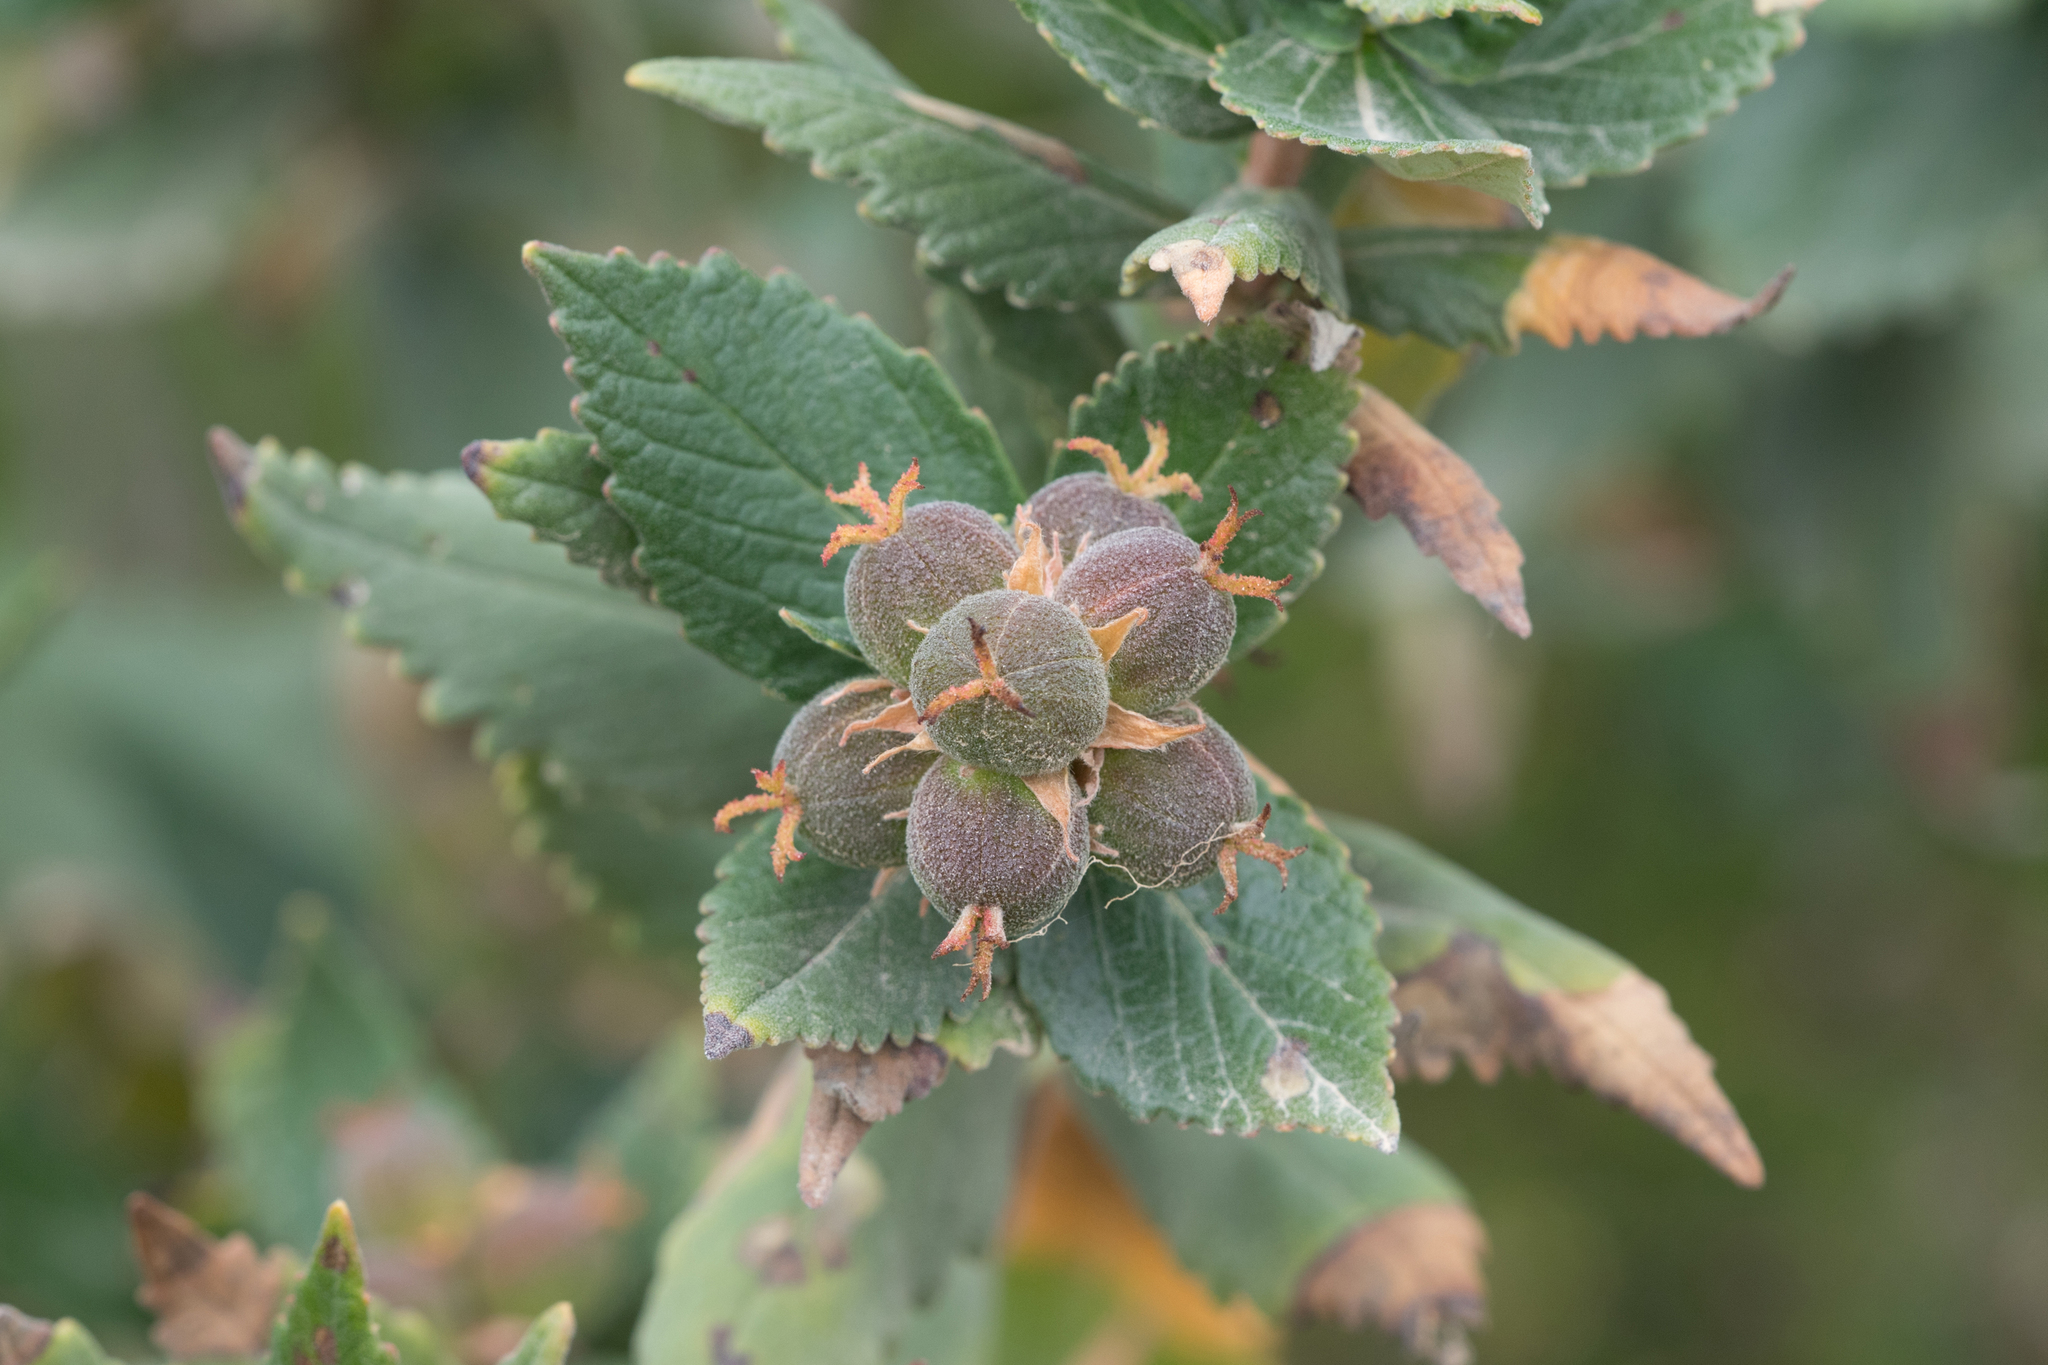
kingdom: Plantae
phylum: Tracheophyta
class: Magnoliopsida
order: Malpighiales
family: Euphorbiaceae
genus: Adriana
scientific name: Adriana quadripartita
